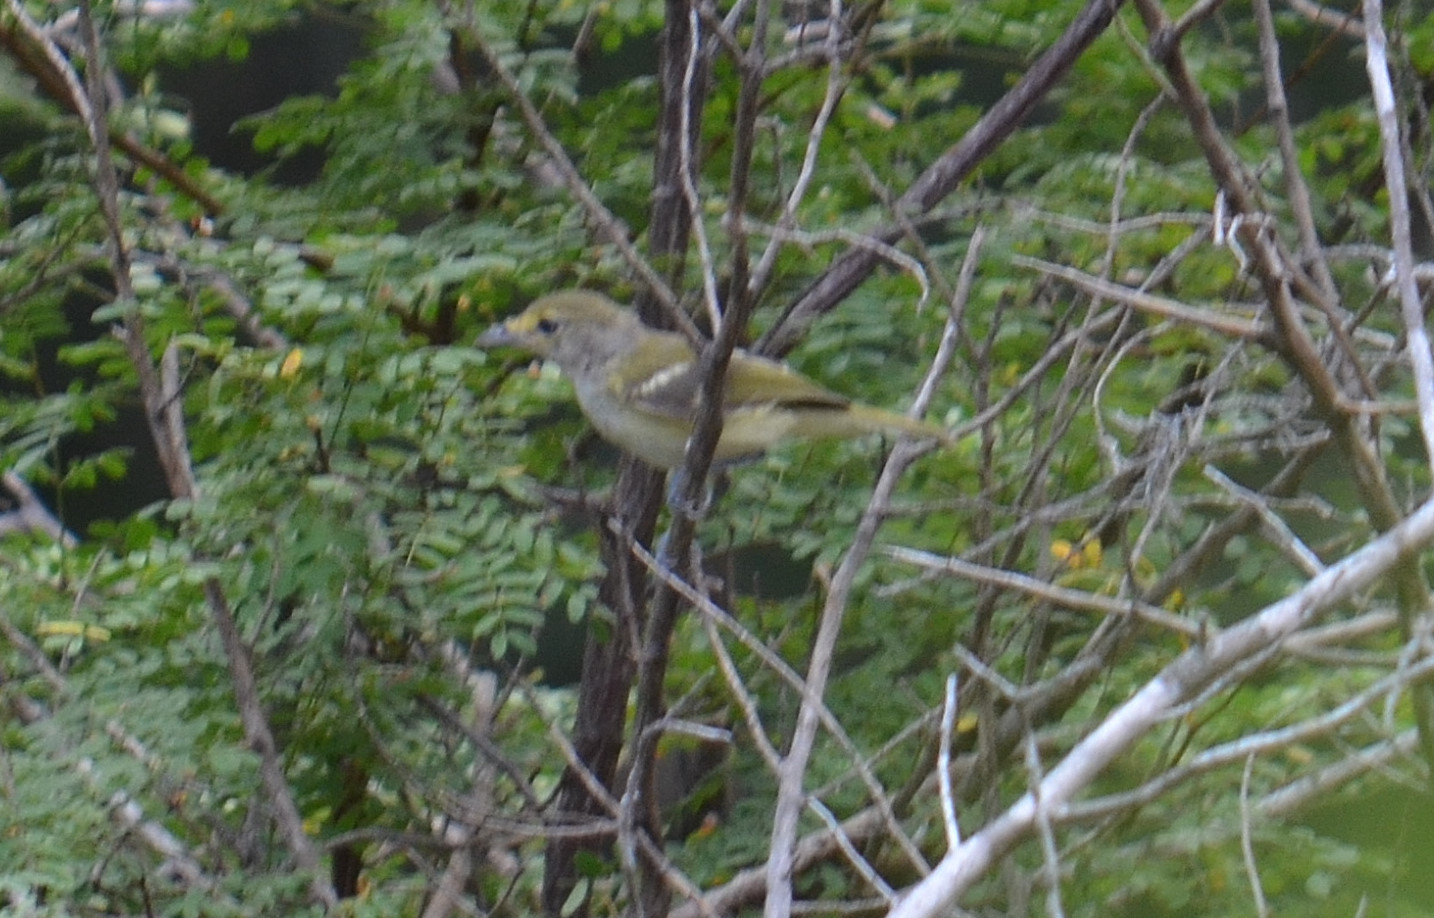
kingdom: Animalia
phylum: Chordata
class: Aves
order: Passeriformes
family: Vireonidae
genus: Vireo
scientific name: Vireo griseus
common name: White-eyed vireo
